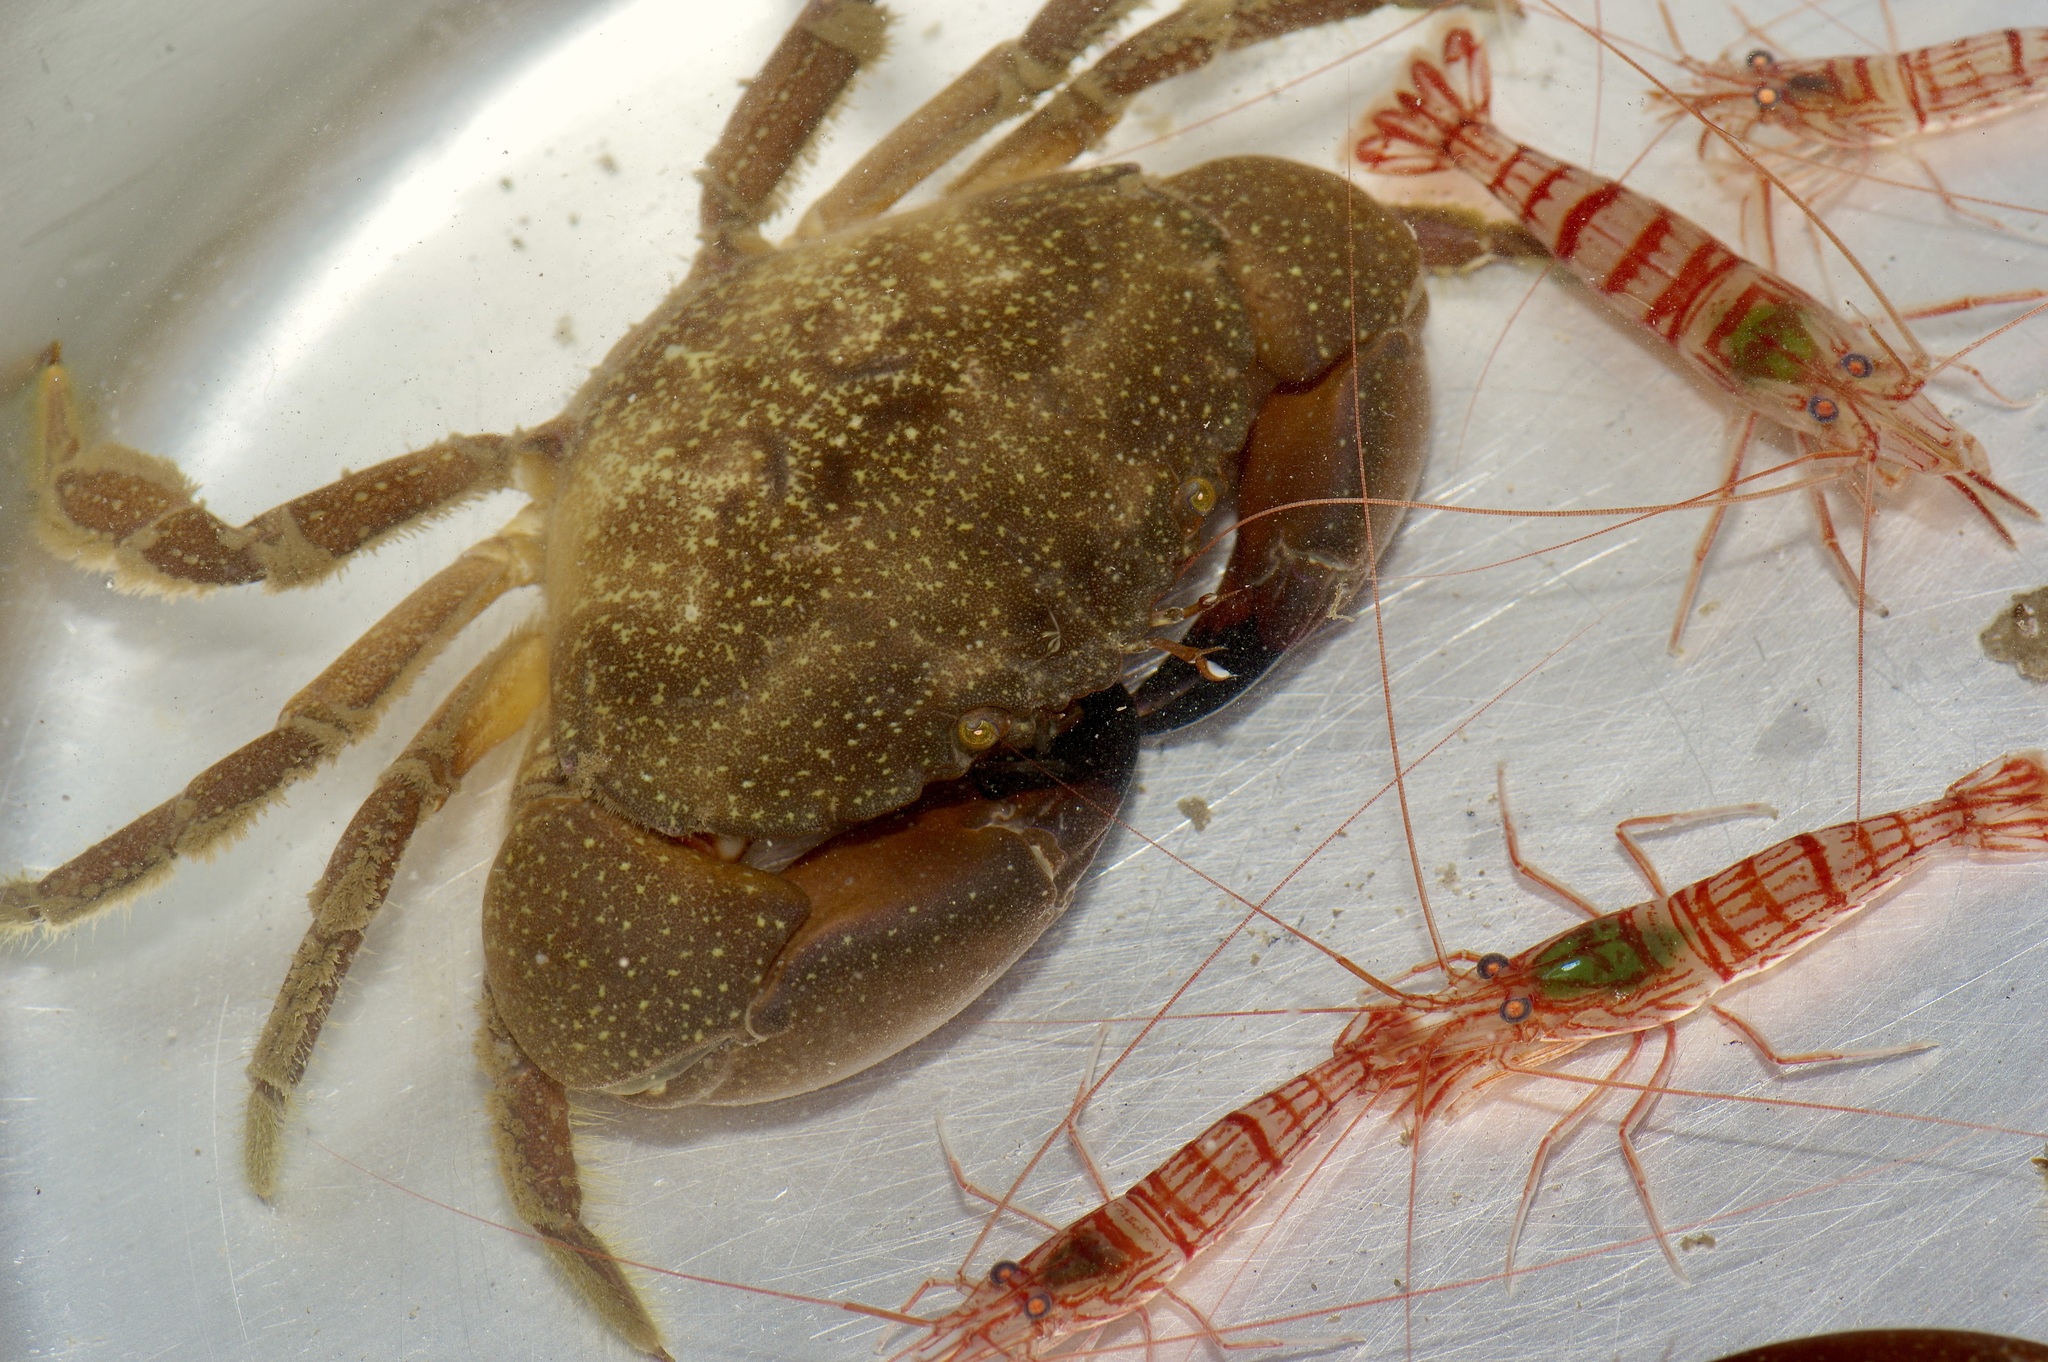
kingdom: Animalia
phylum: Arthropoda
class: Malacostraca
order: Decapoda
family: Menippidae
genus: Menippe
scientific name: Menippe adina
